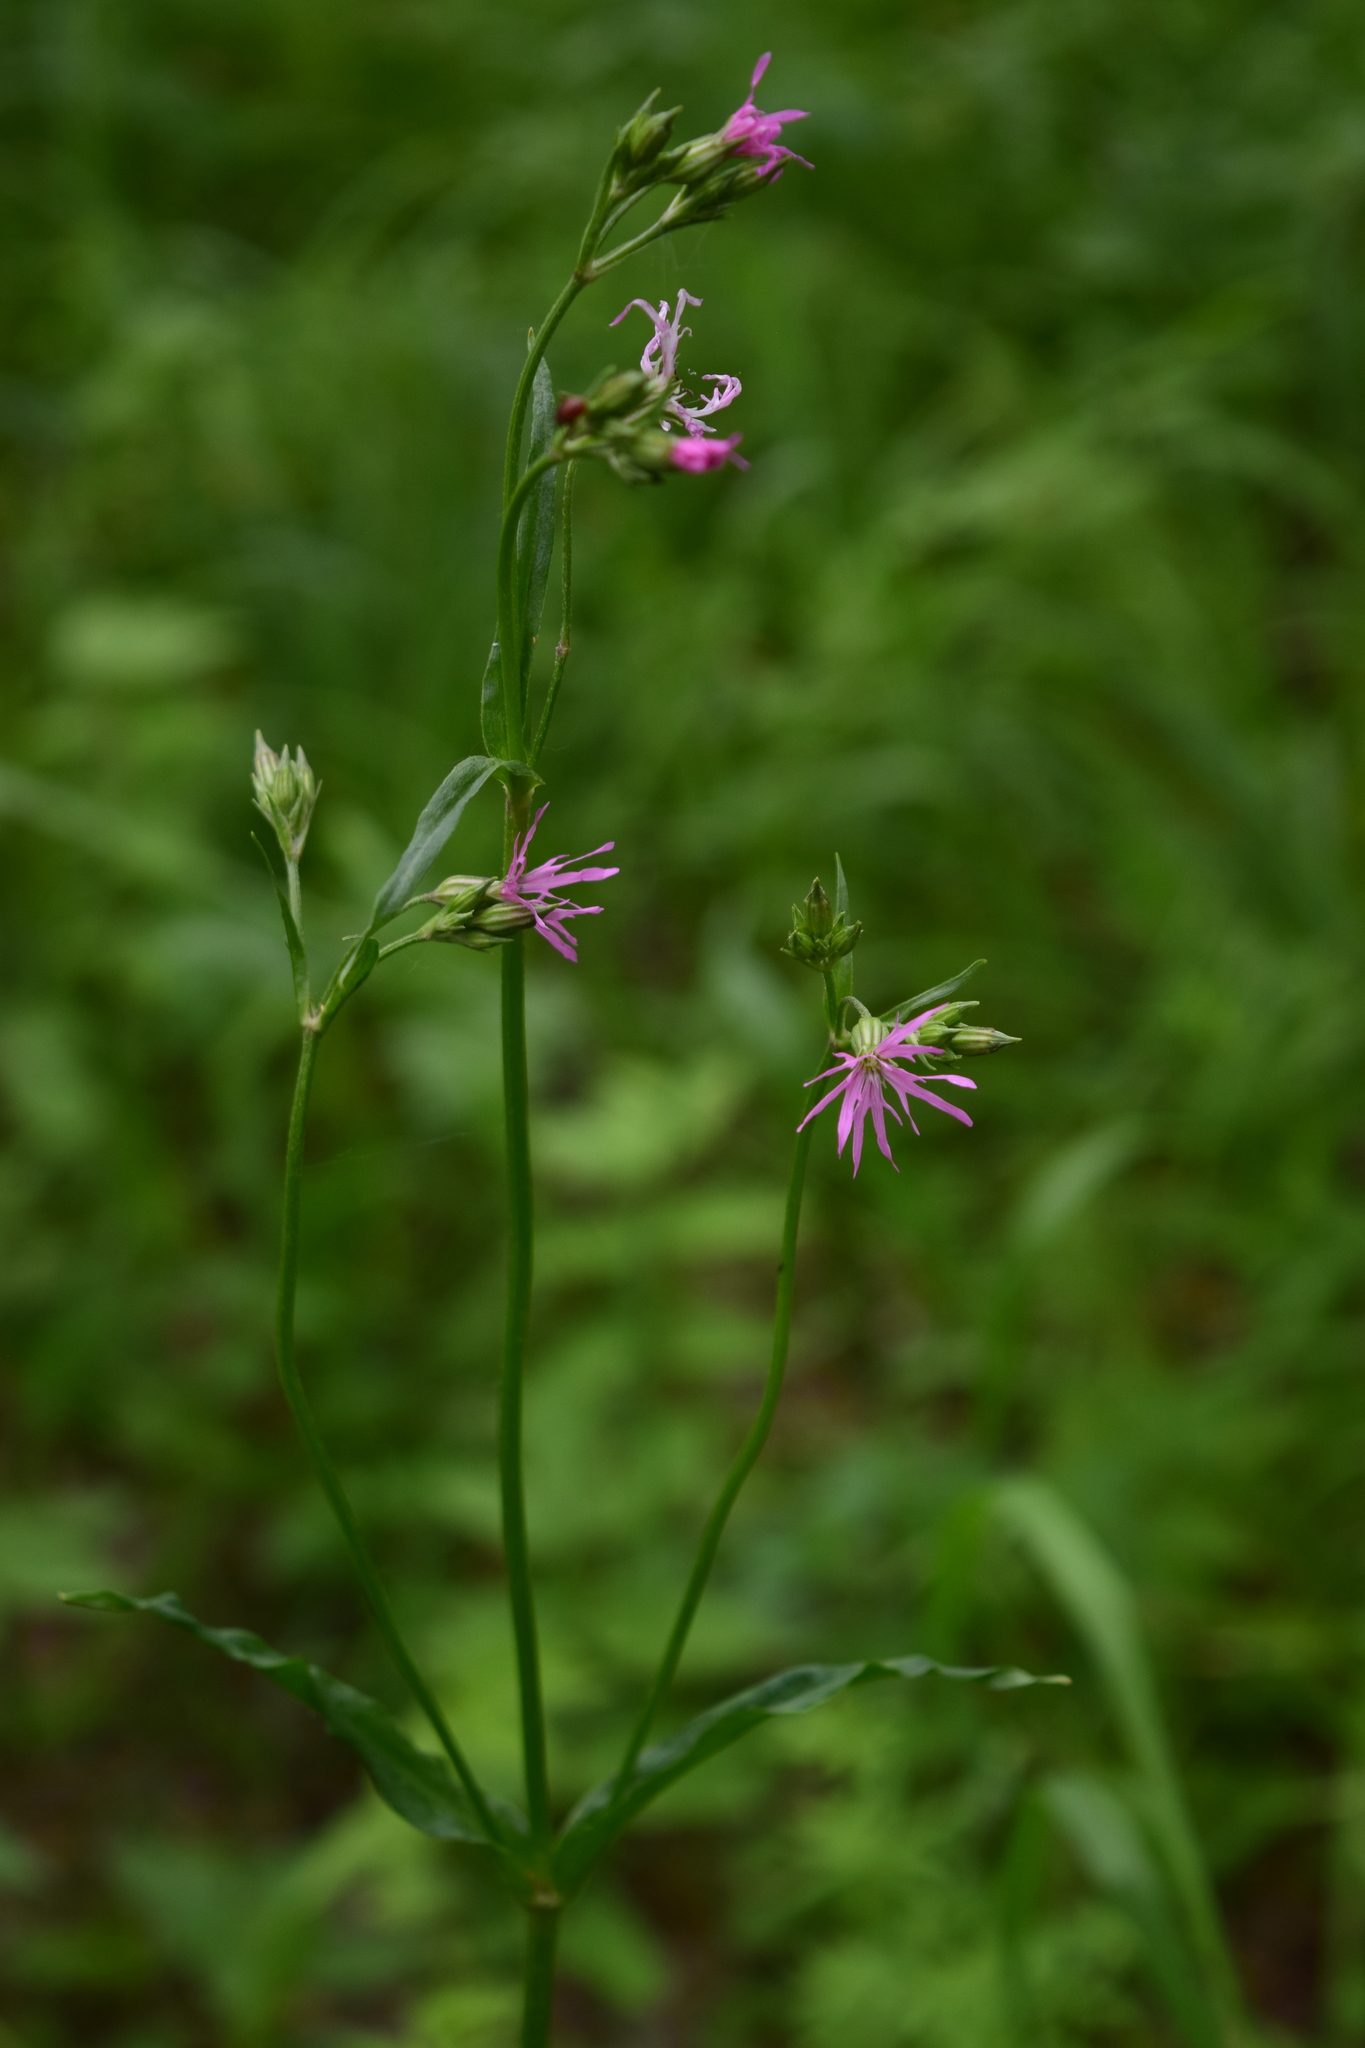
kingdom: Plantae
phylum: Tracheophyta
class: Magnoliopsida
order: Caryophyllales
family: Caryophyllaceae
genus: Silene
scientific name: Silene flos-cuculi
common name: Ragged-robin
